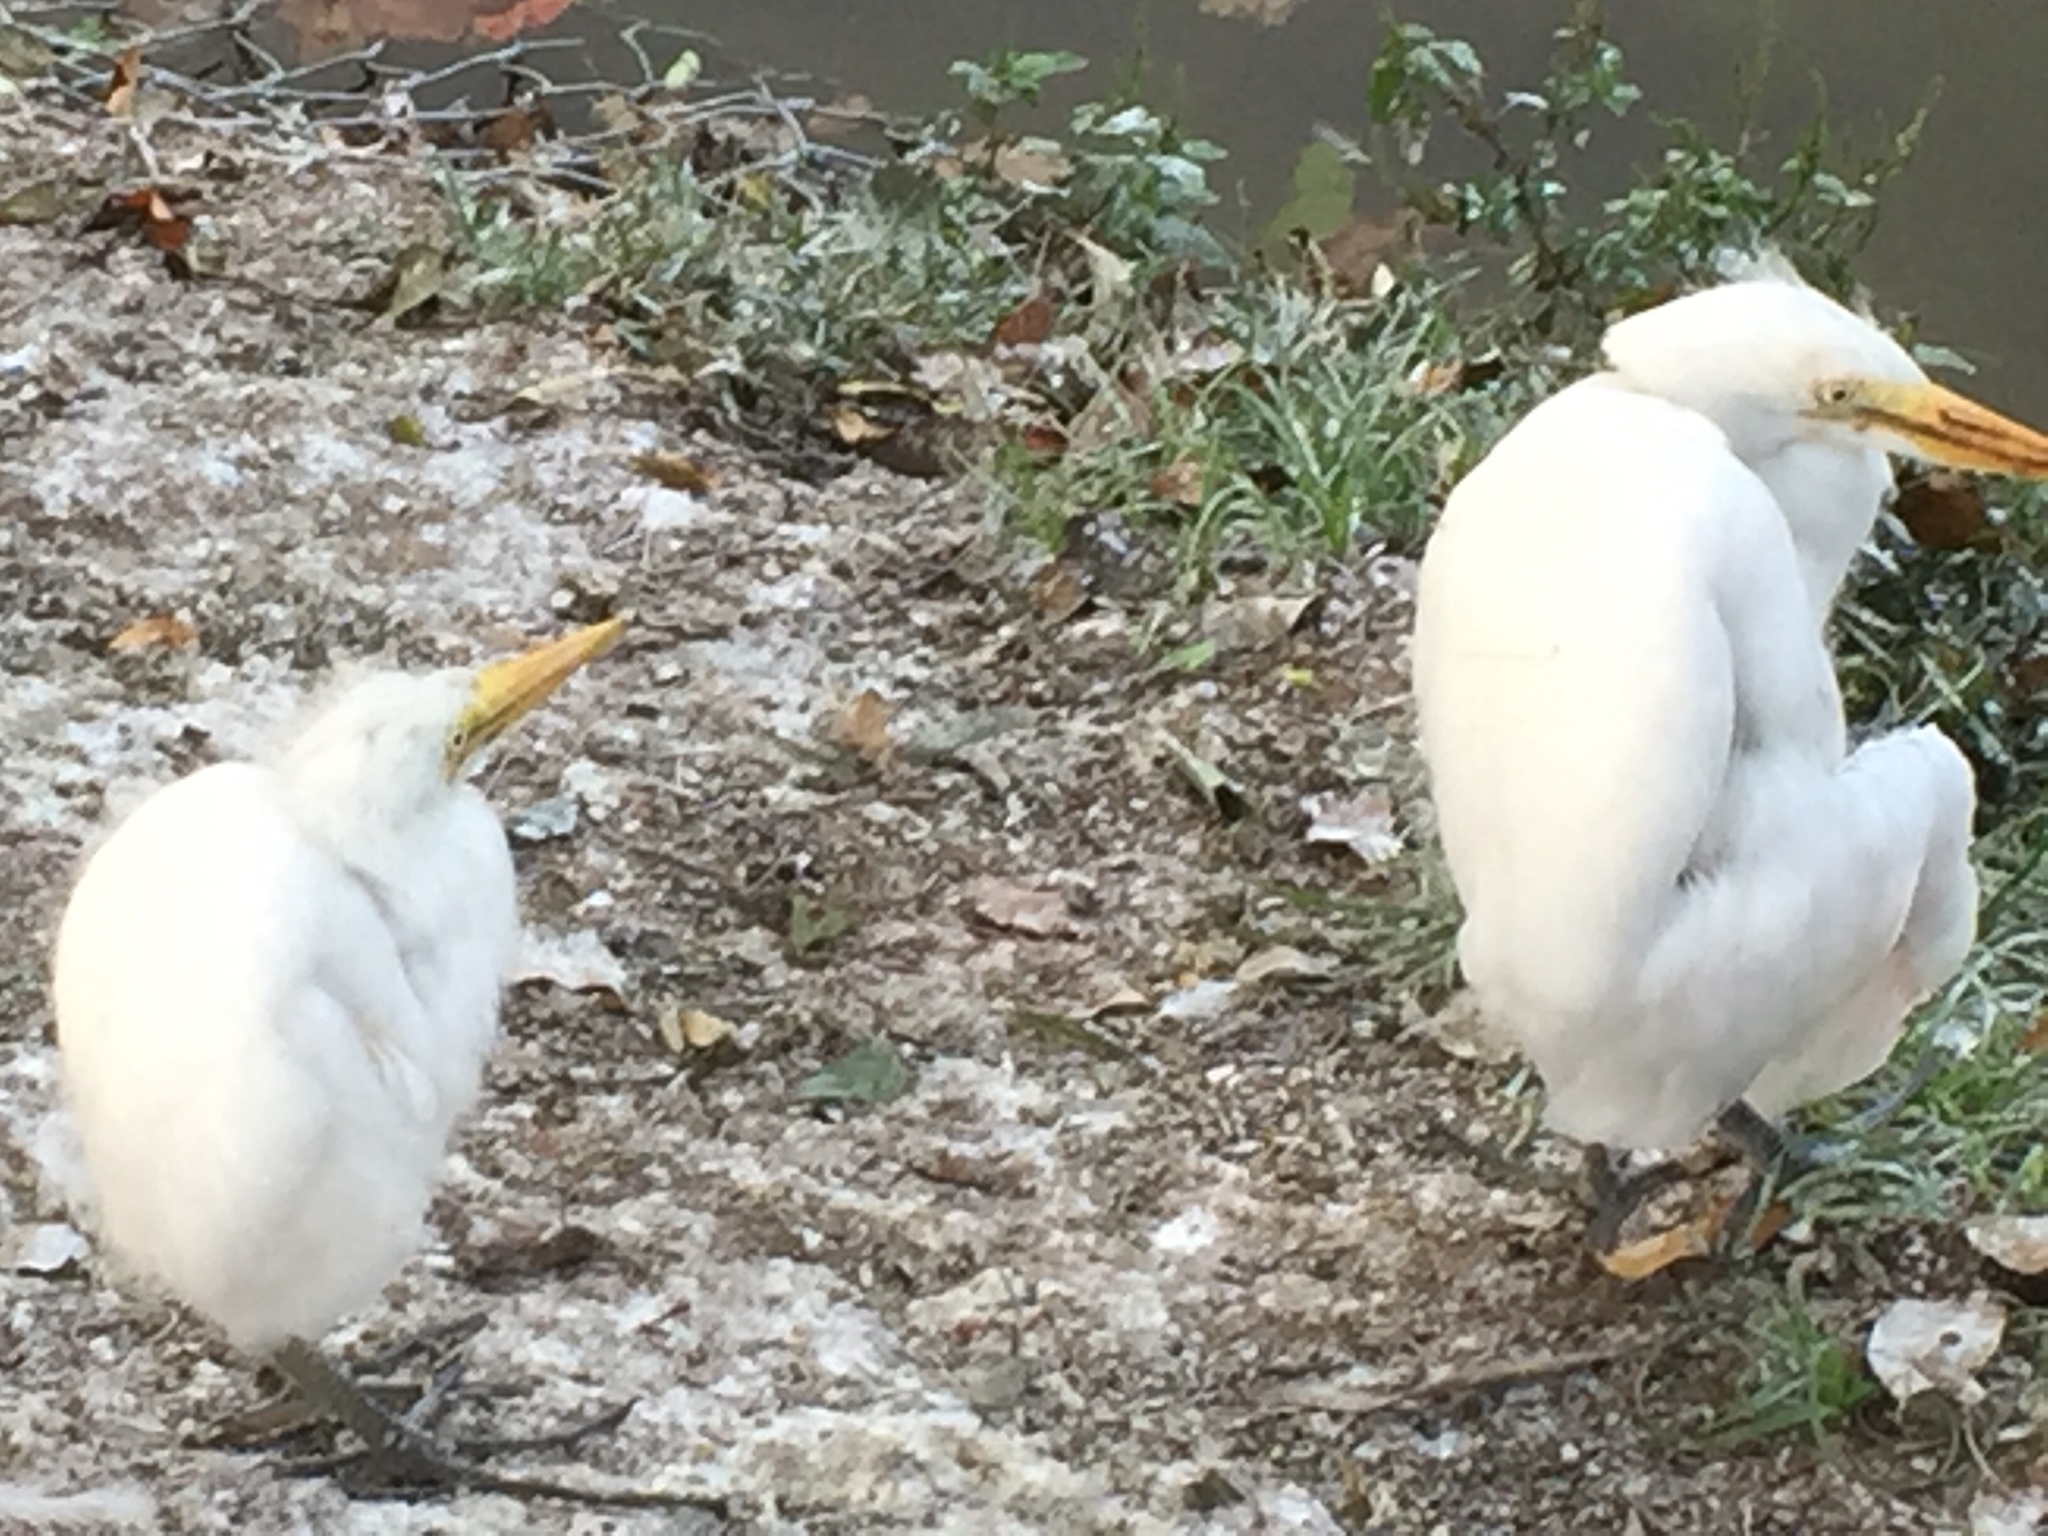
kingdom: Animalia
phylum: Chordata
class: Aves
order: Pelecaniformes
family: Ardeidae
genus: Ardea
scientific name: Ardea alba
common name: Great egret
